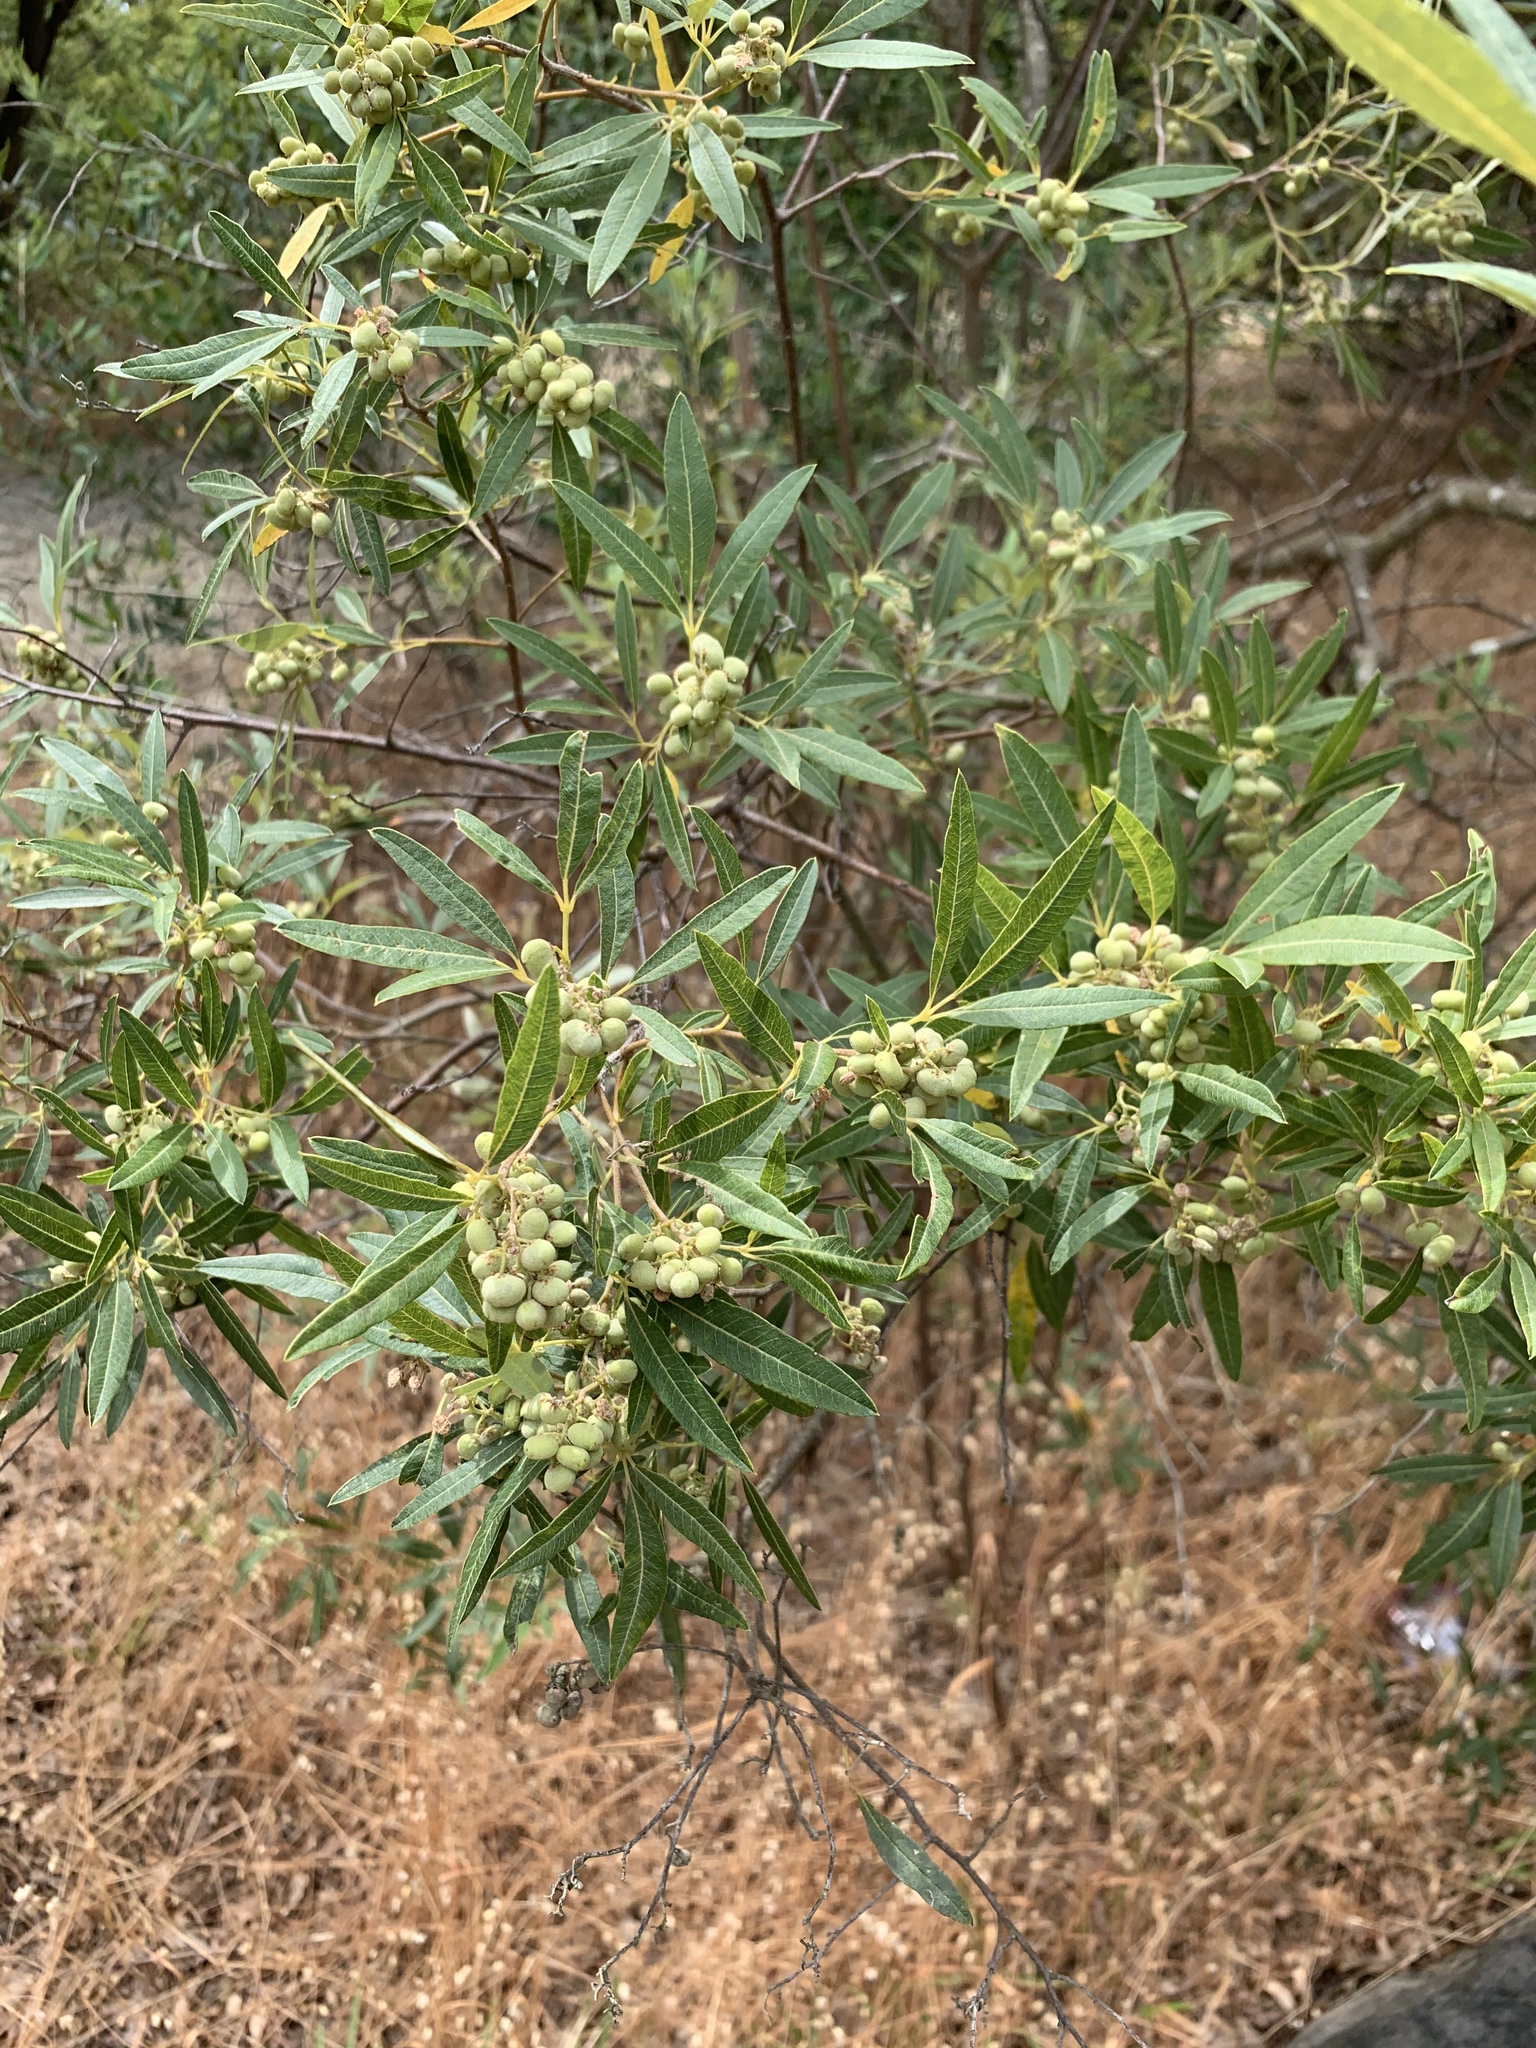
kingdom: Plantae
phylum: Tracheophyta
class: Magnoliopsida
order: Sapindales
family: Anacardiaceae
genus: Searsia
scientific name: Searsia angustifolia
